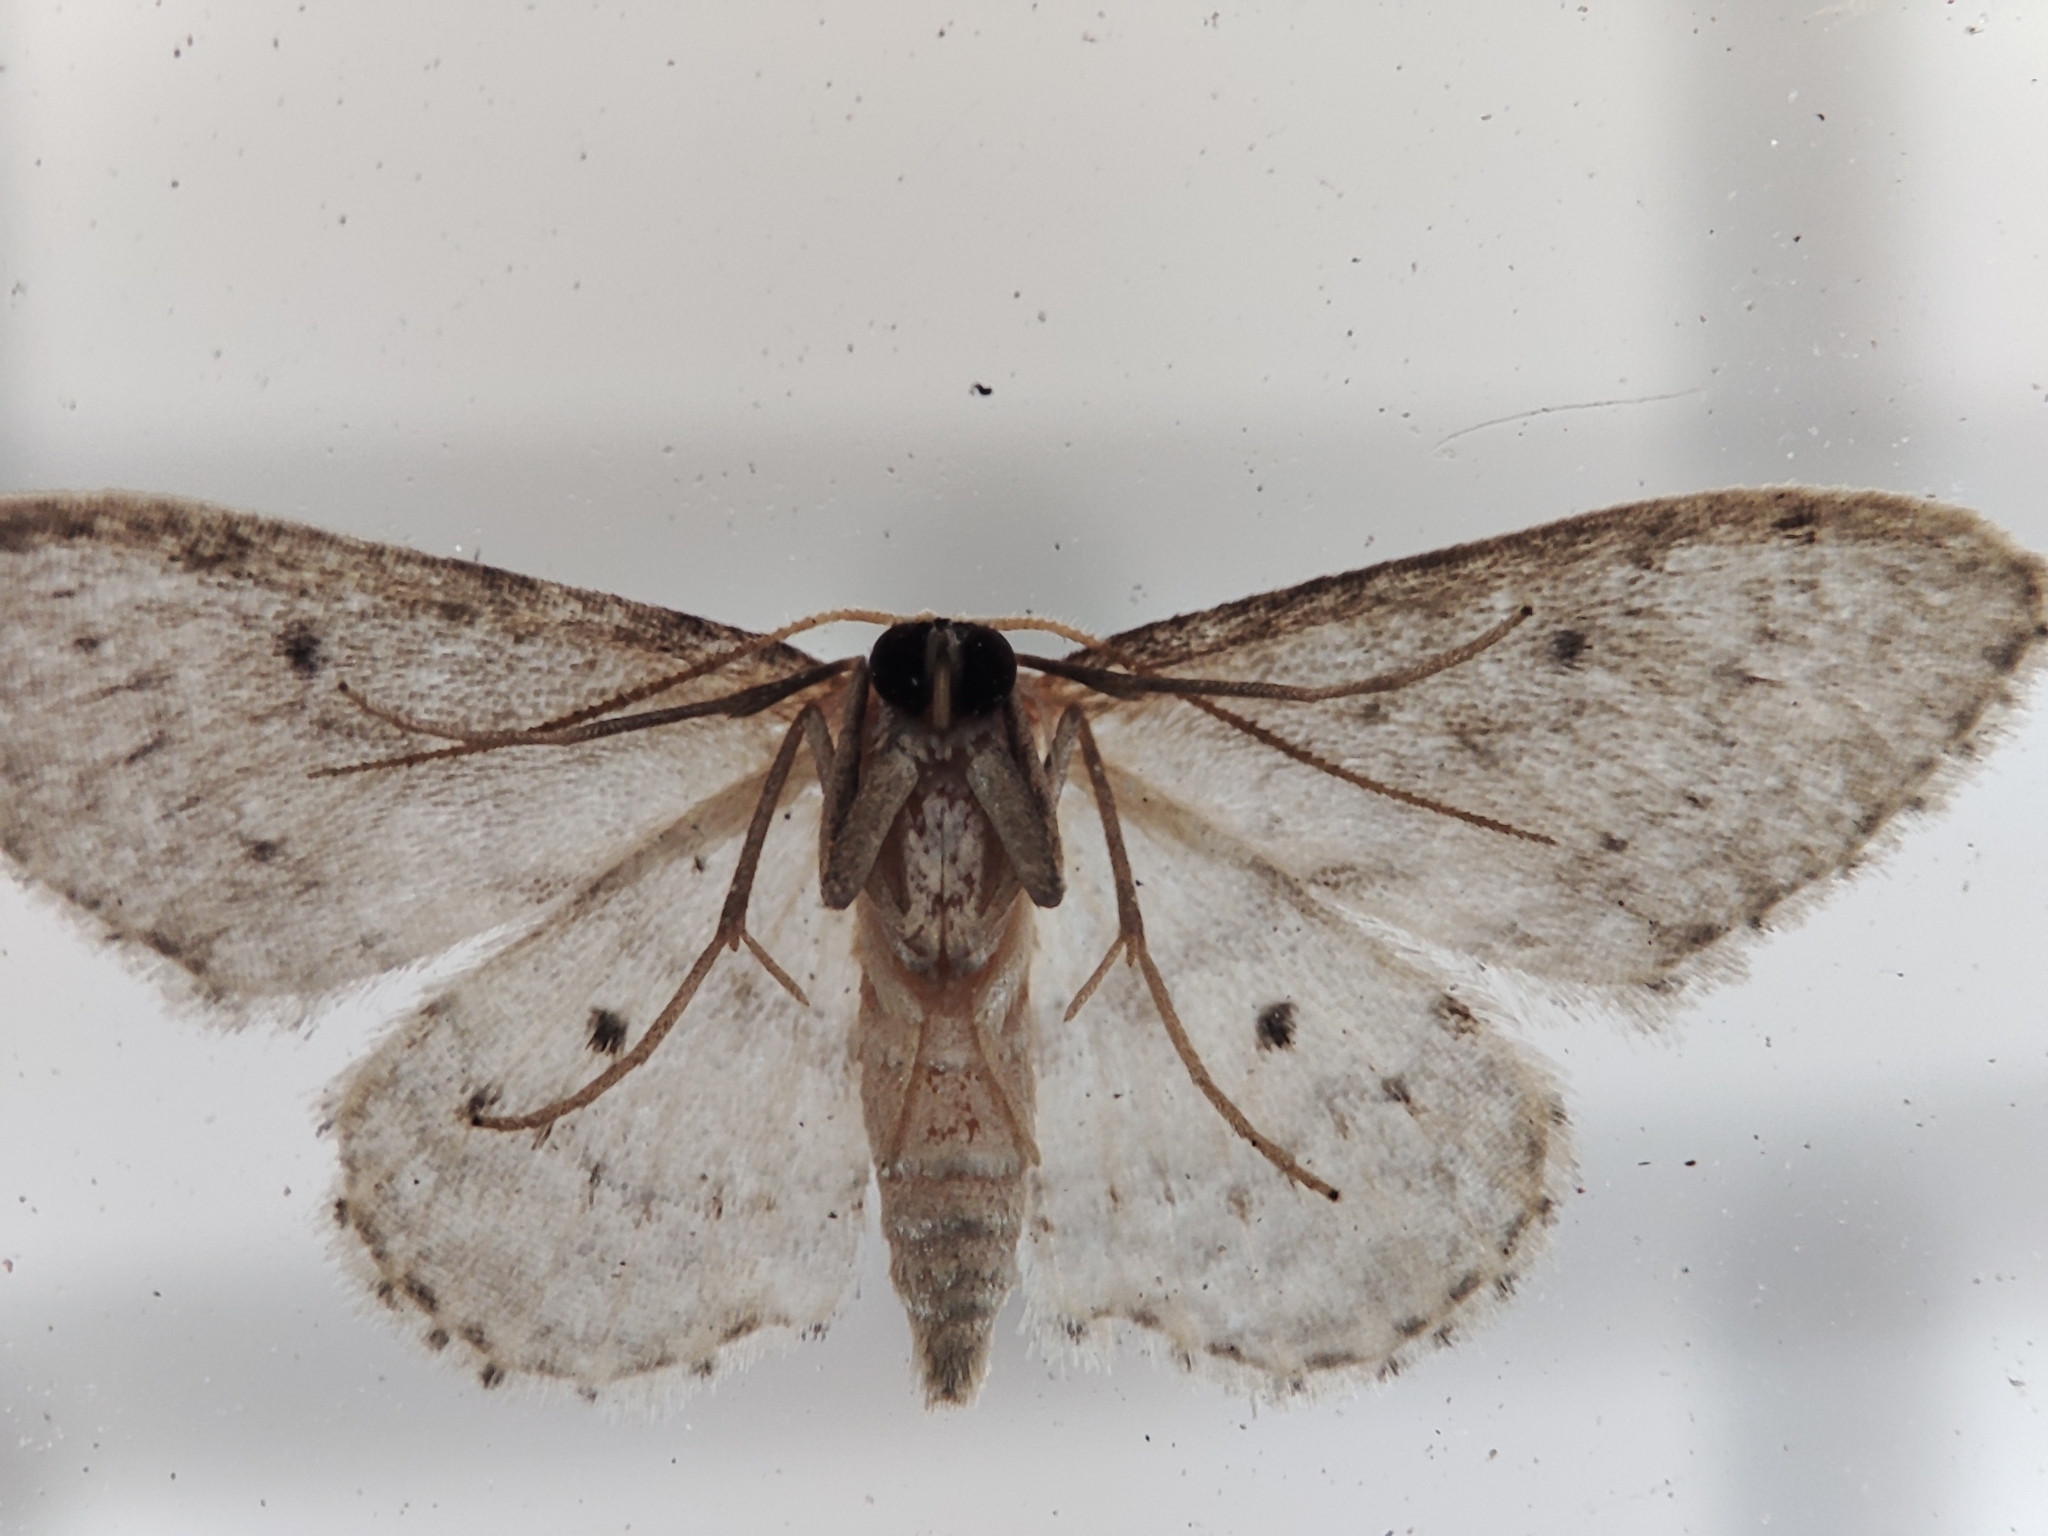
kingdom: Animalia
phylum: Arthropoda
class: Insecta
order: Lepidoptera
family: Geometridae
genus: Idaea
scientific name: Idaea seriata
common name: Small dusty wave
